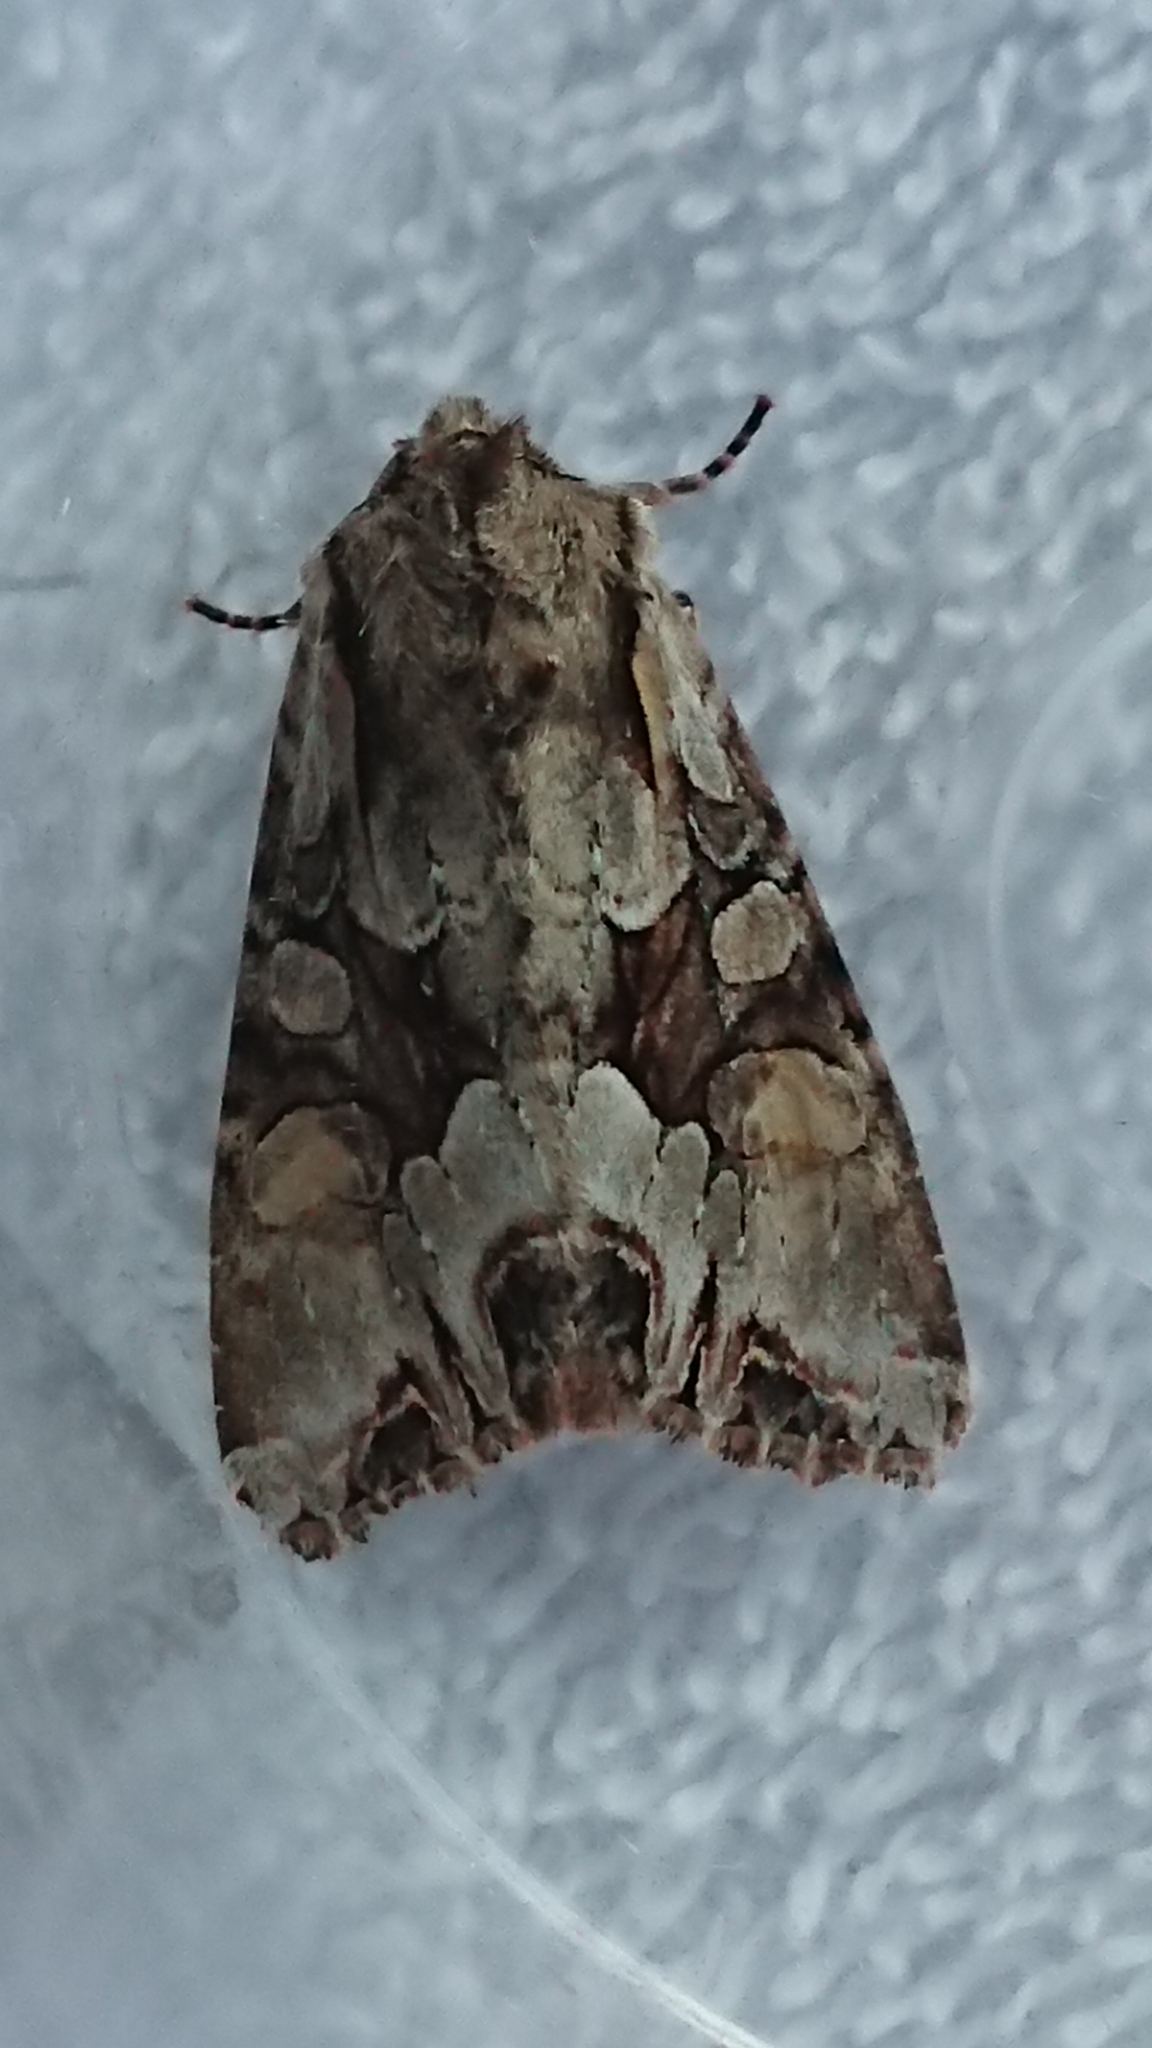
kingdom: Animalia
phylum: Arthropoda
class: Insecta
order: Lepidoptera
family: Noctuidae
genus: Lacanobia
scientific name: Lacanobia w-latinum
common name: Light brocade
